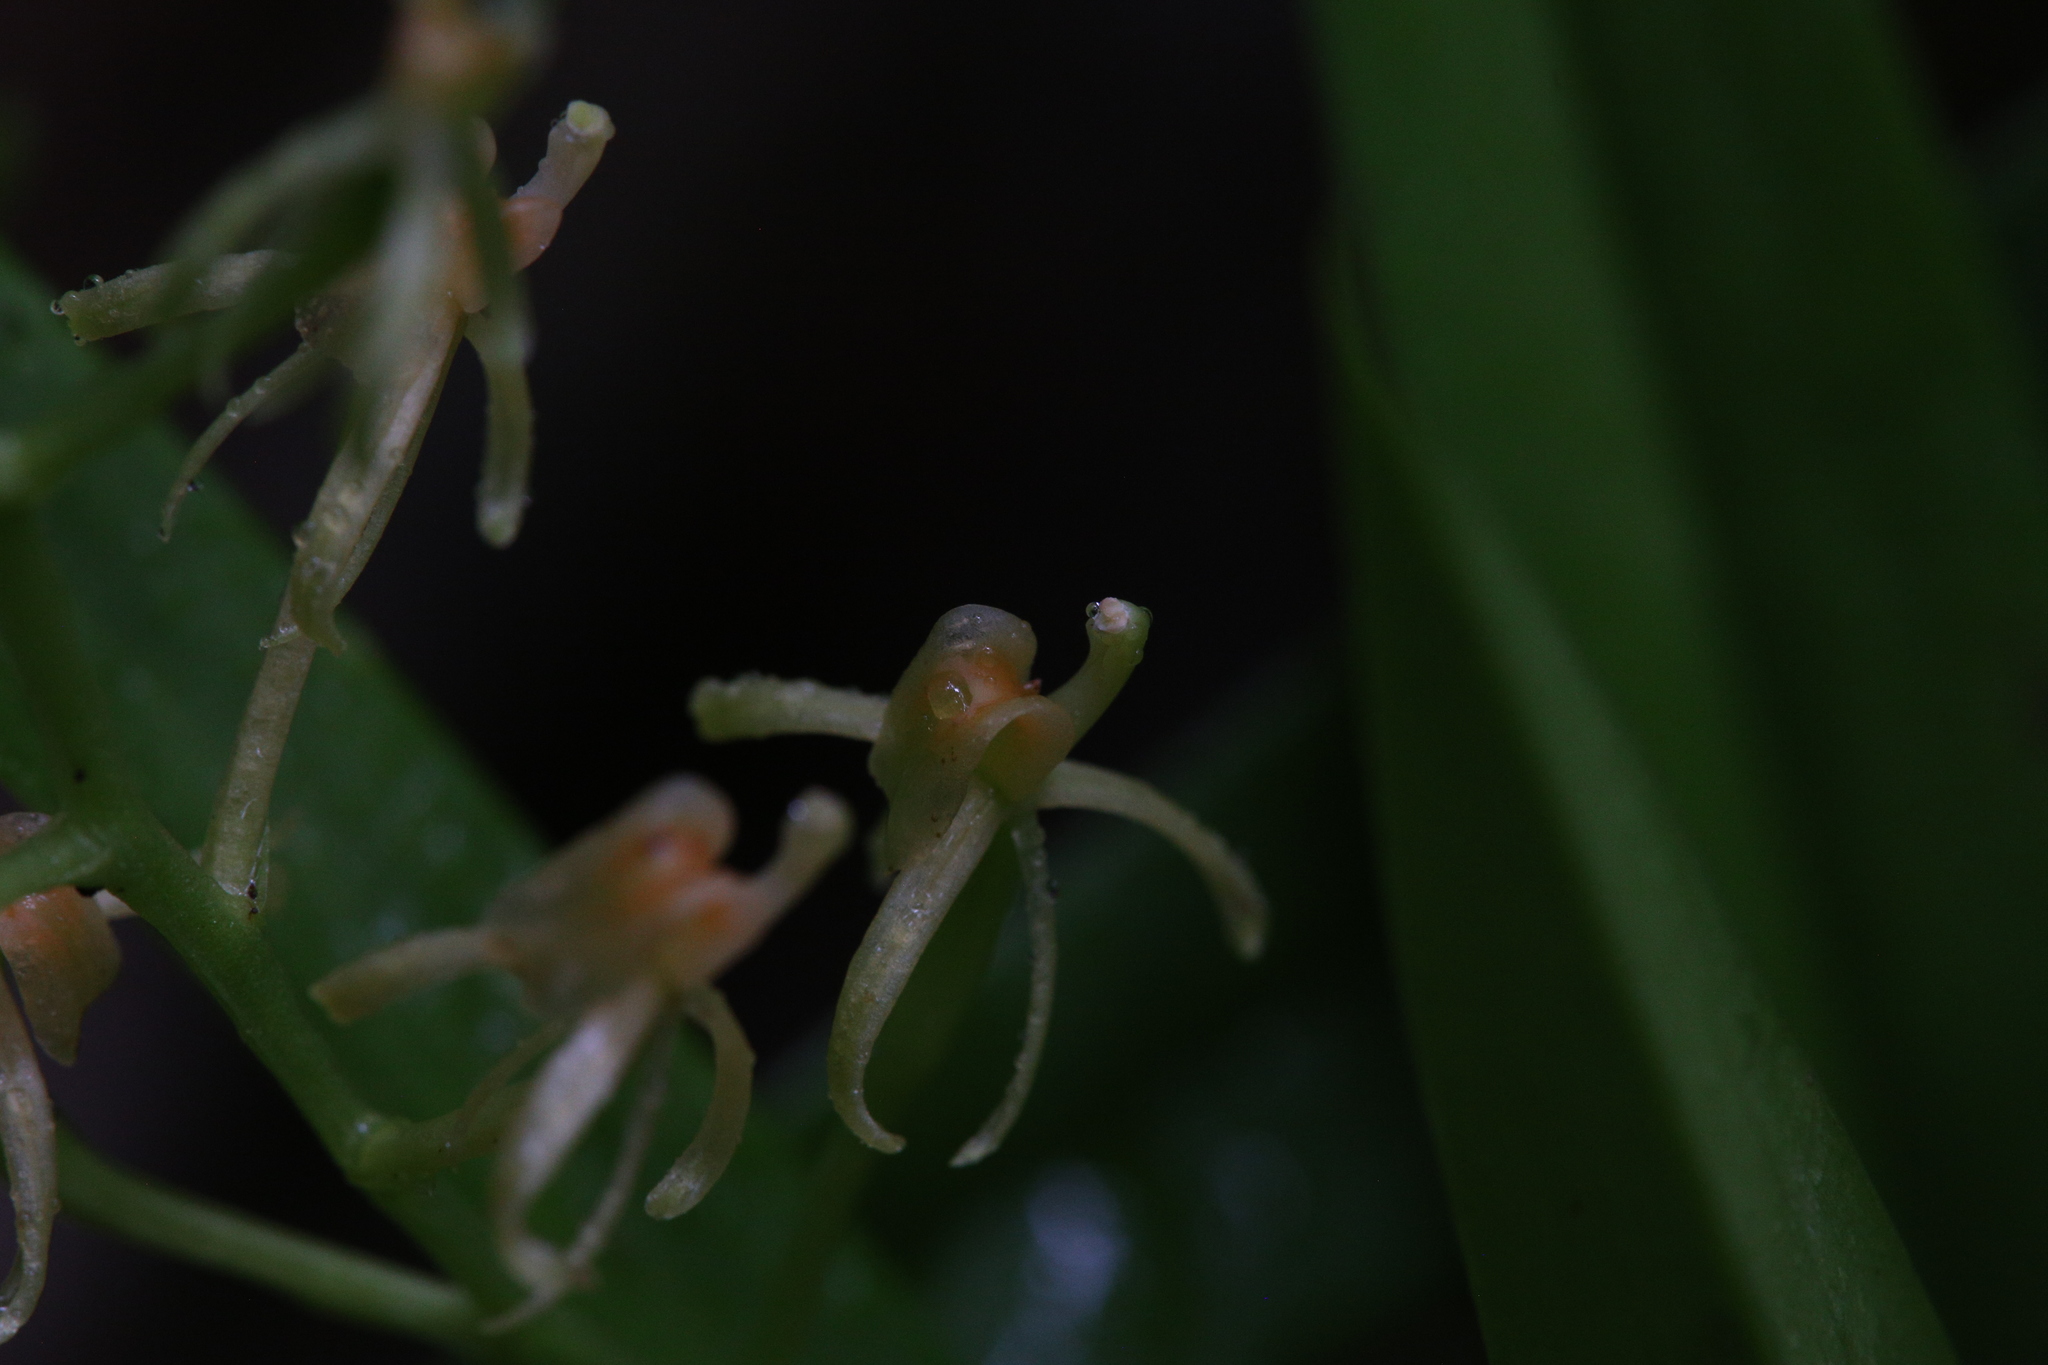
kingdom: Animalia
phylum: Chordata
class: Aves
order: Passeriformes
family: Rhipiduridae
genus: Rhipidura
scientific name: Rhipidura albiscapa
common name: Grey fantail
